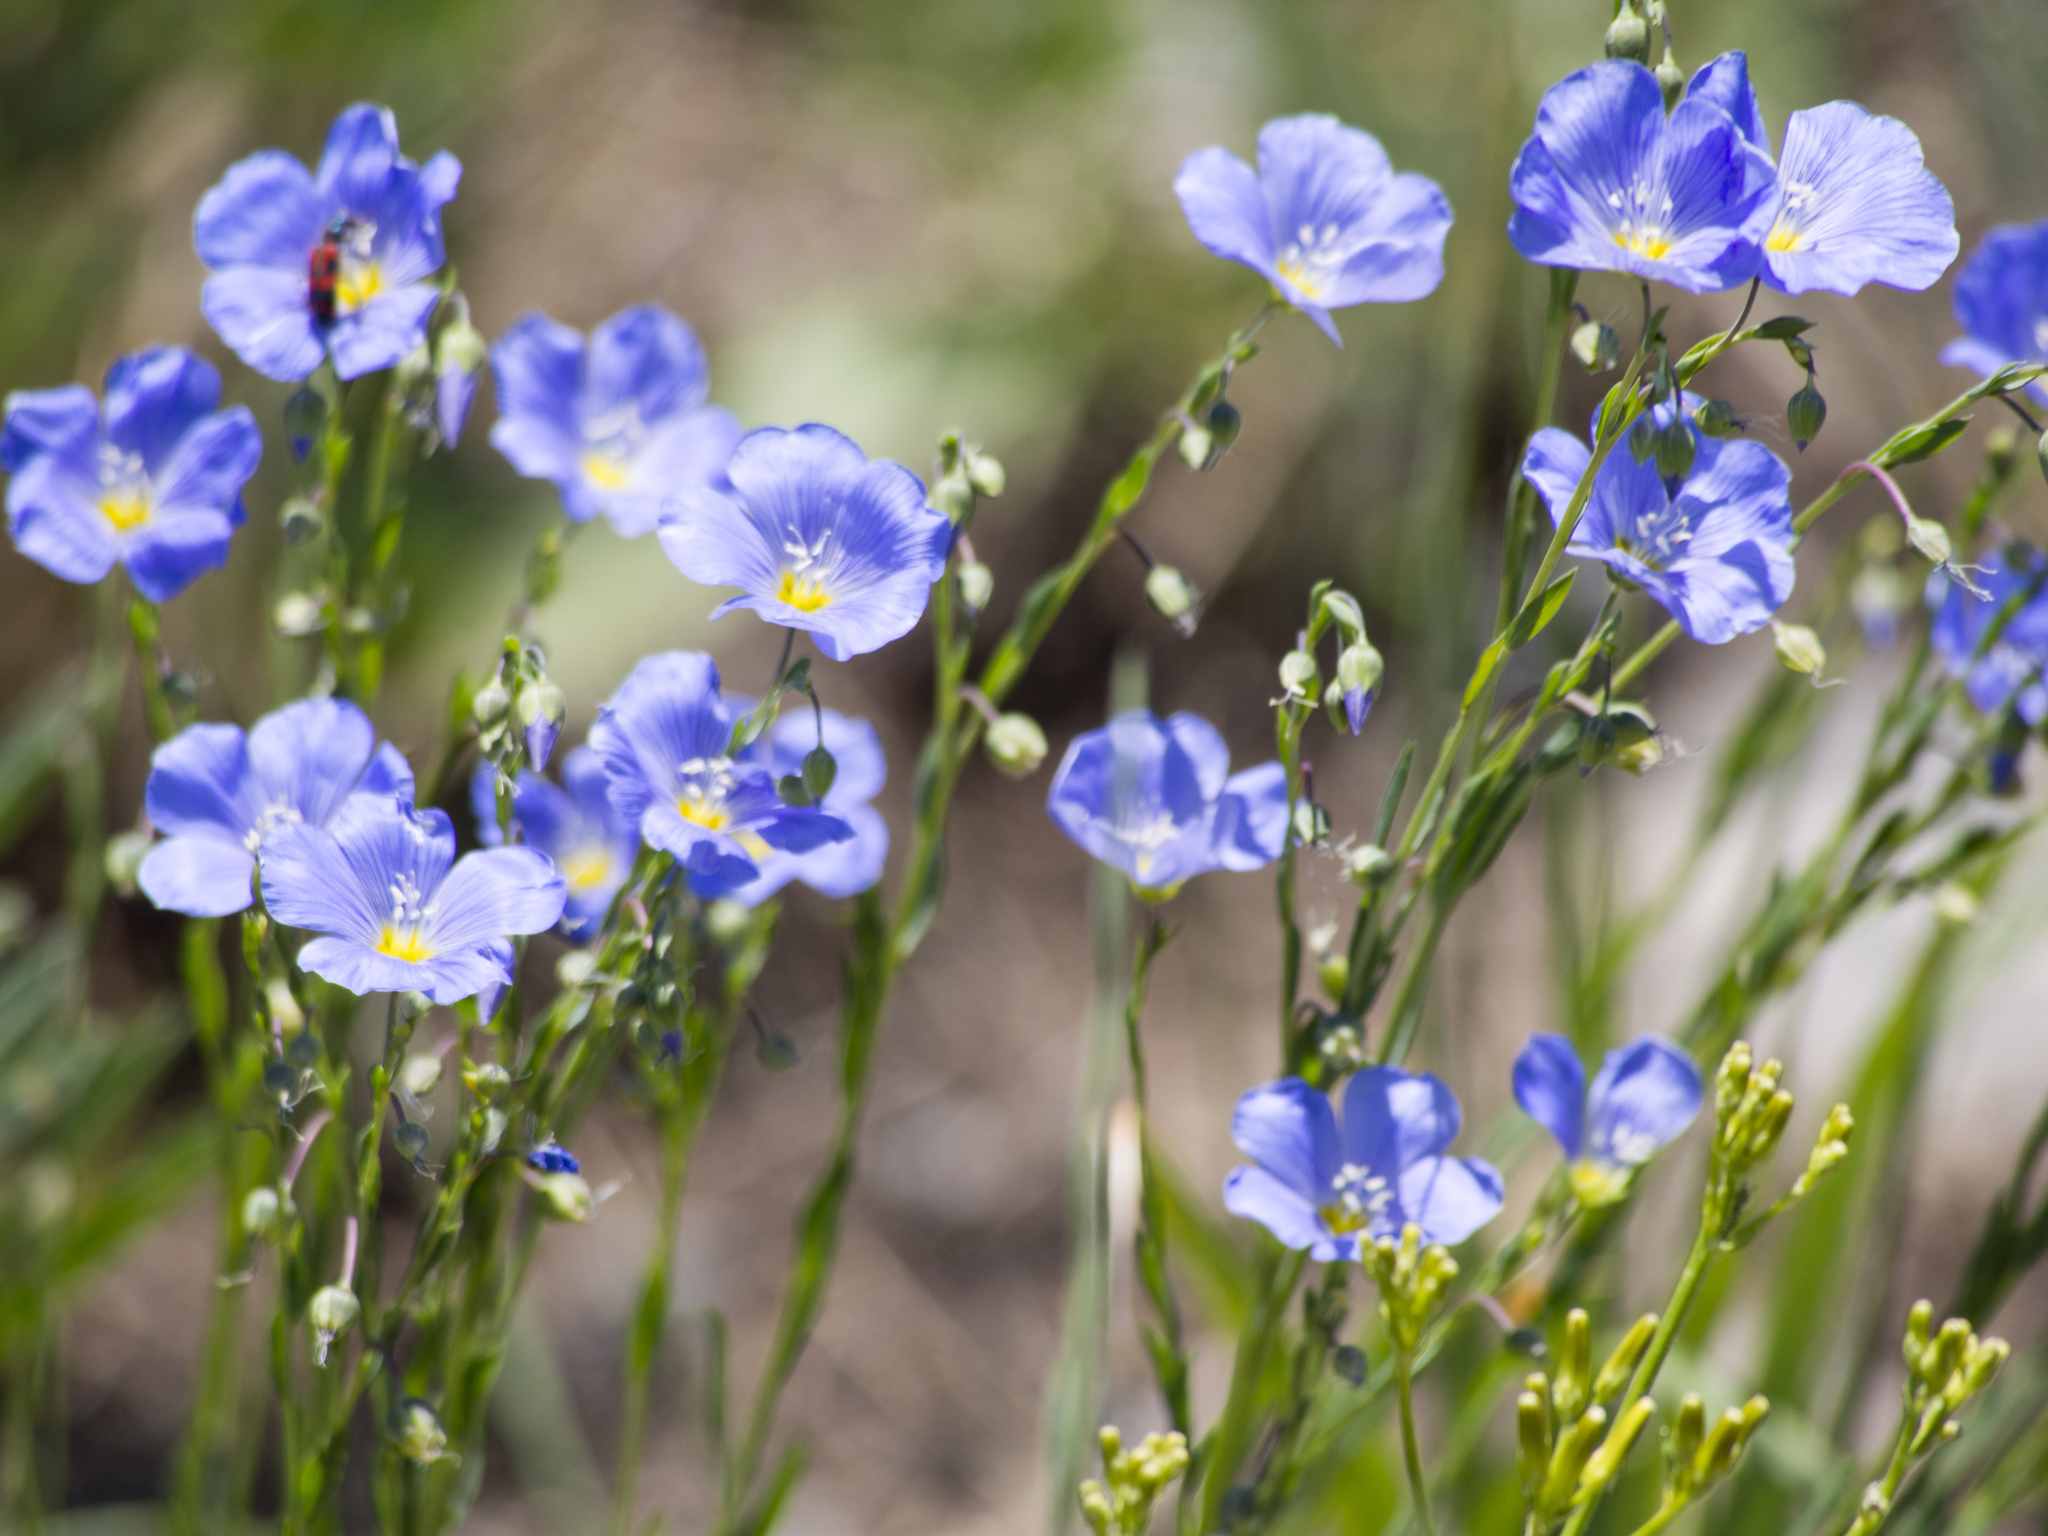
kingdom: Plantae
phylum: Tracheophyta
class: Magnoliopsida
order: Malpighiales
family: Linaceae
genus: Linum
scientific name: Linum lewisii
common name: Prairie flax
